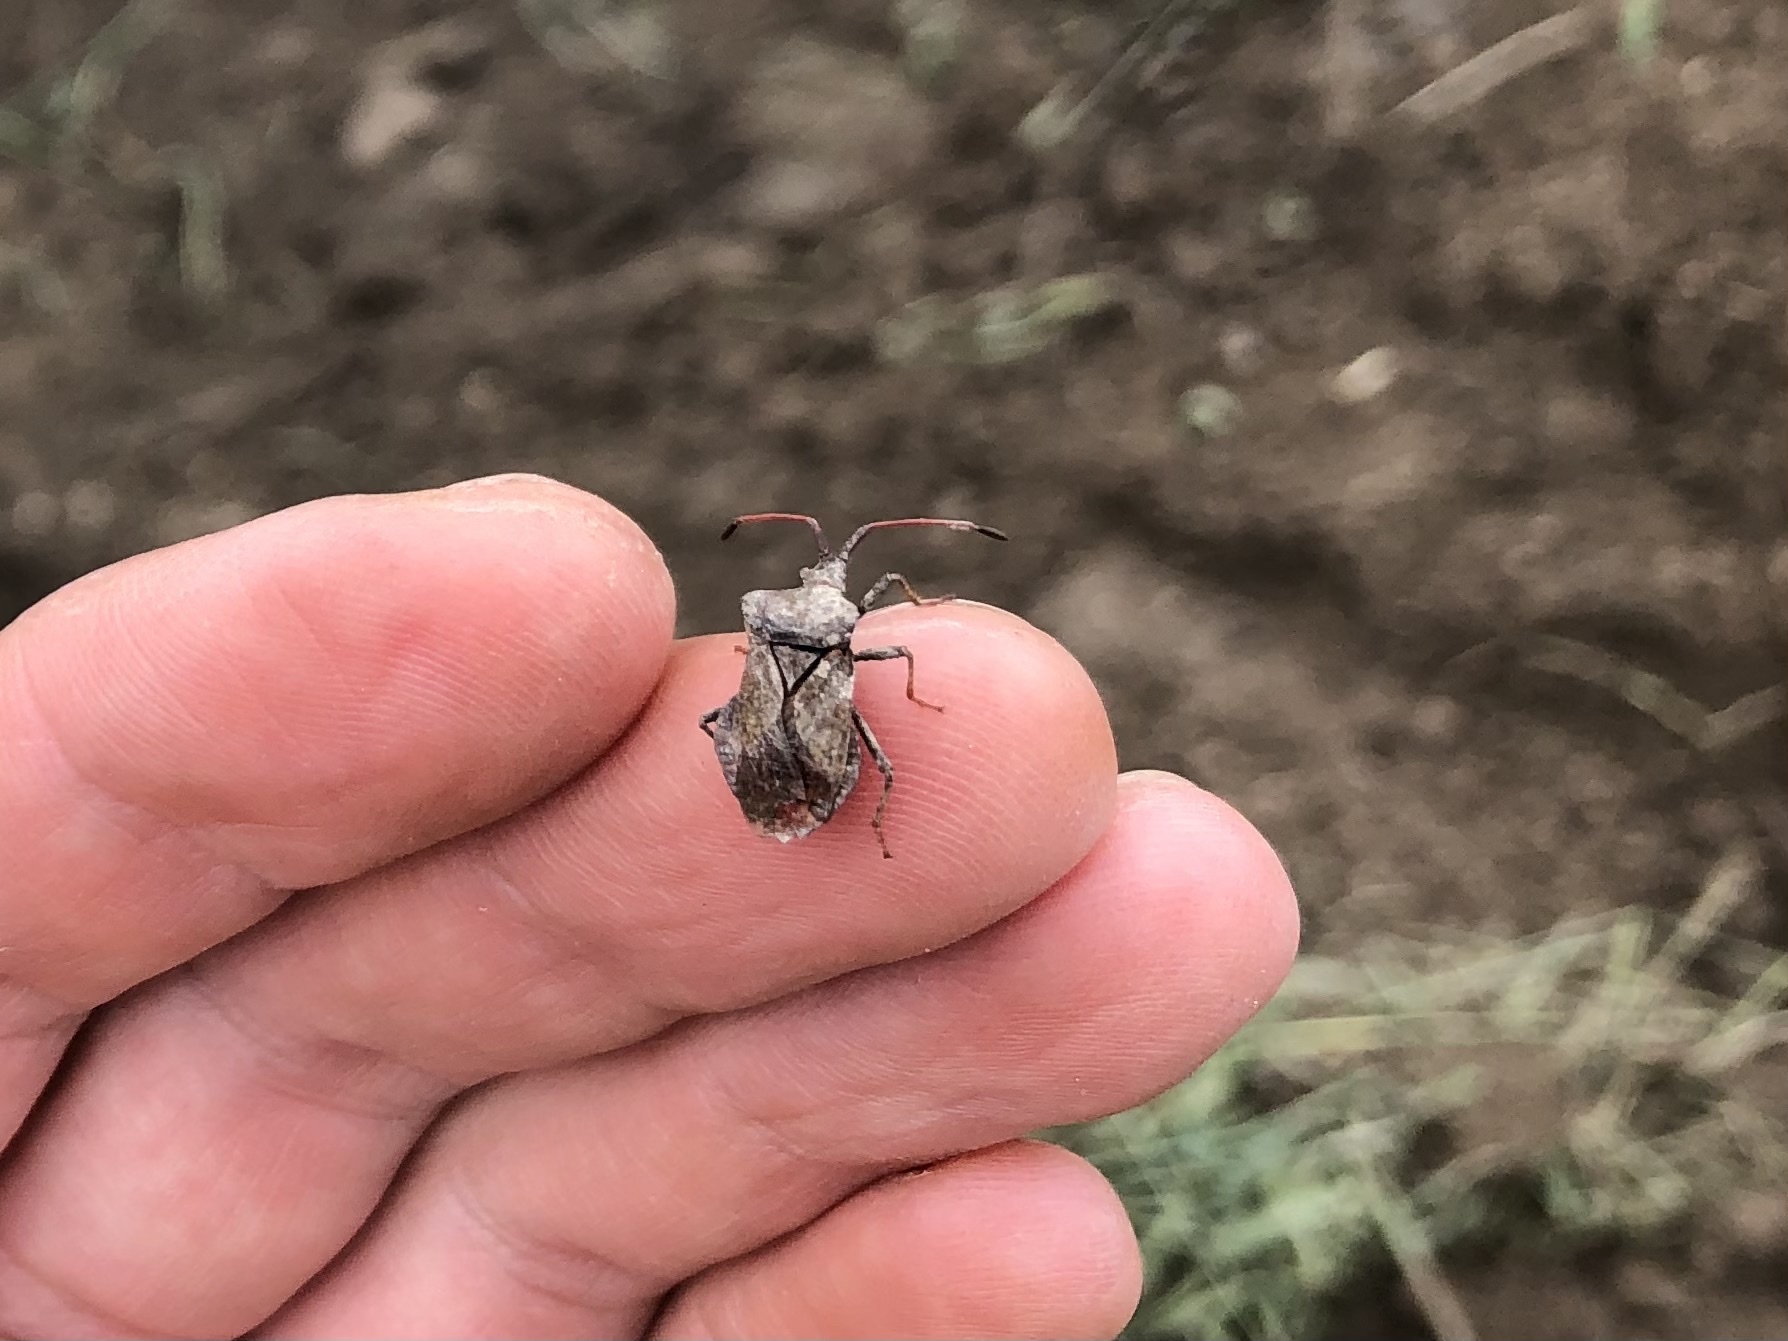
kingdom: Animalia
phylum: Arthropoda
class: Insecta
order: Hemiptera
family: Coreidae
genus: Coreus
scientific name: Coreus marginatus
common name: Dock bug
